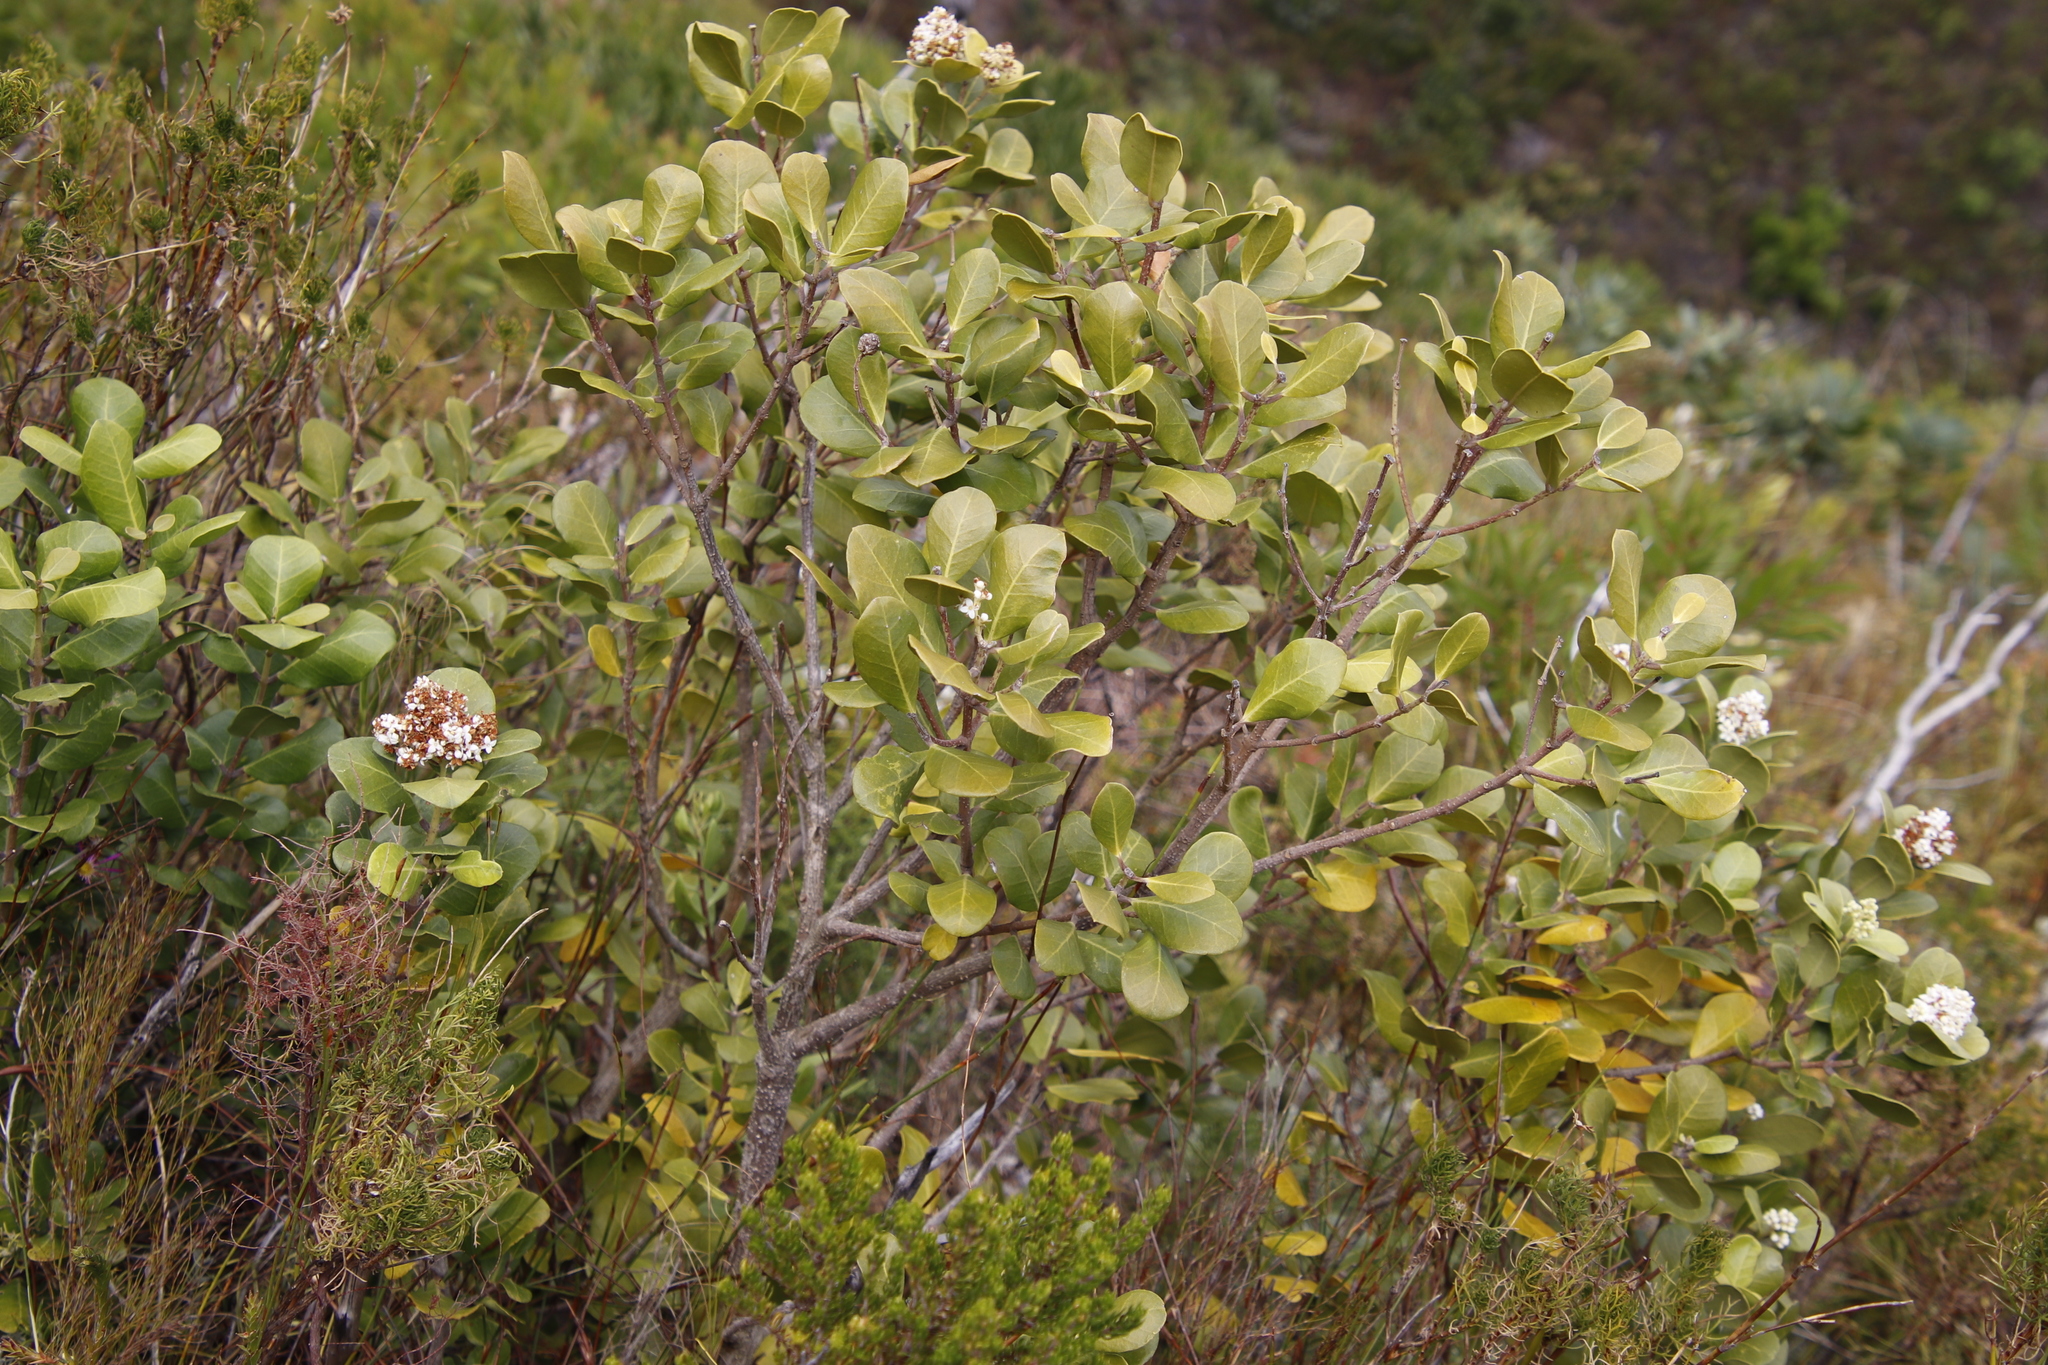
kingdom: Plantae
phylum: Tracheophyta
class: Magnoliopsida
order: Lamiales
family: Oleaceae
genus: Olea
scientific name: Olea capensis
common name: Black ironwood
